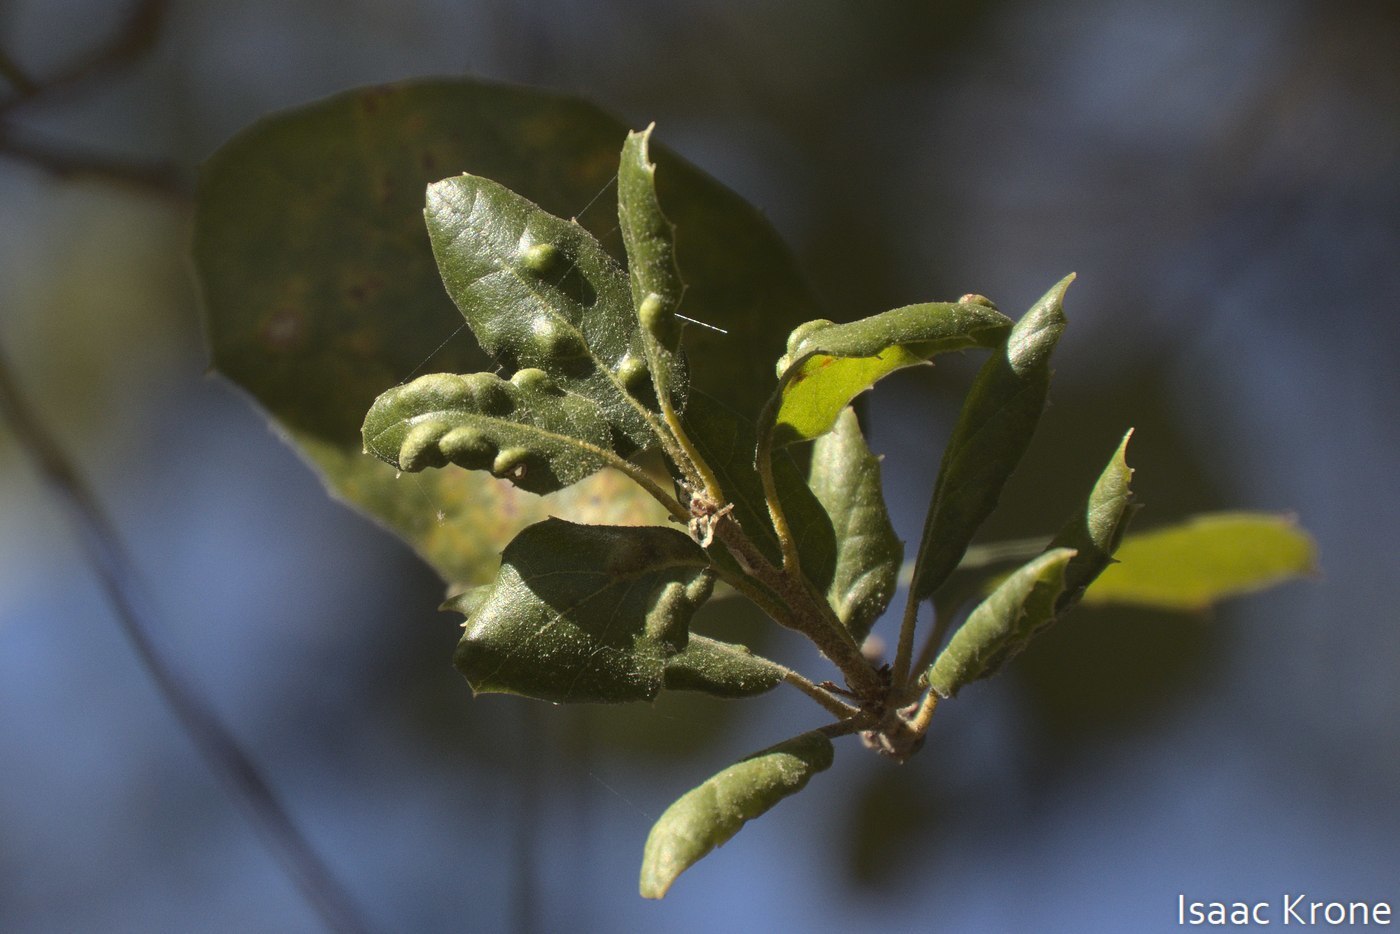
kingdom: Animalia
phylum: Arthropoda
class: Arachnida
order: Trombidiformes
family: Eriophyidae
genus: Aceria
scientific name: Aceria
